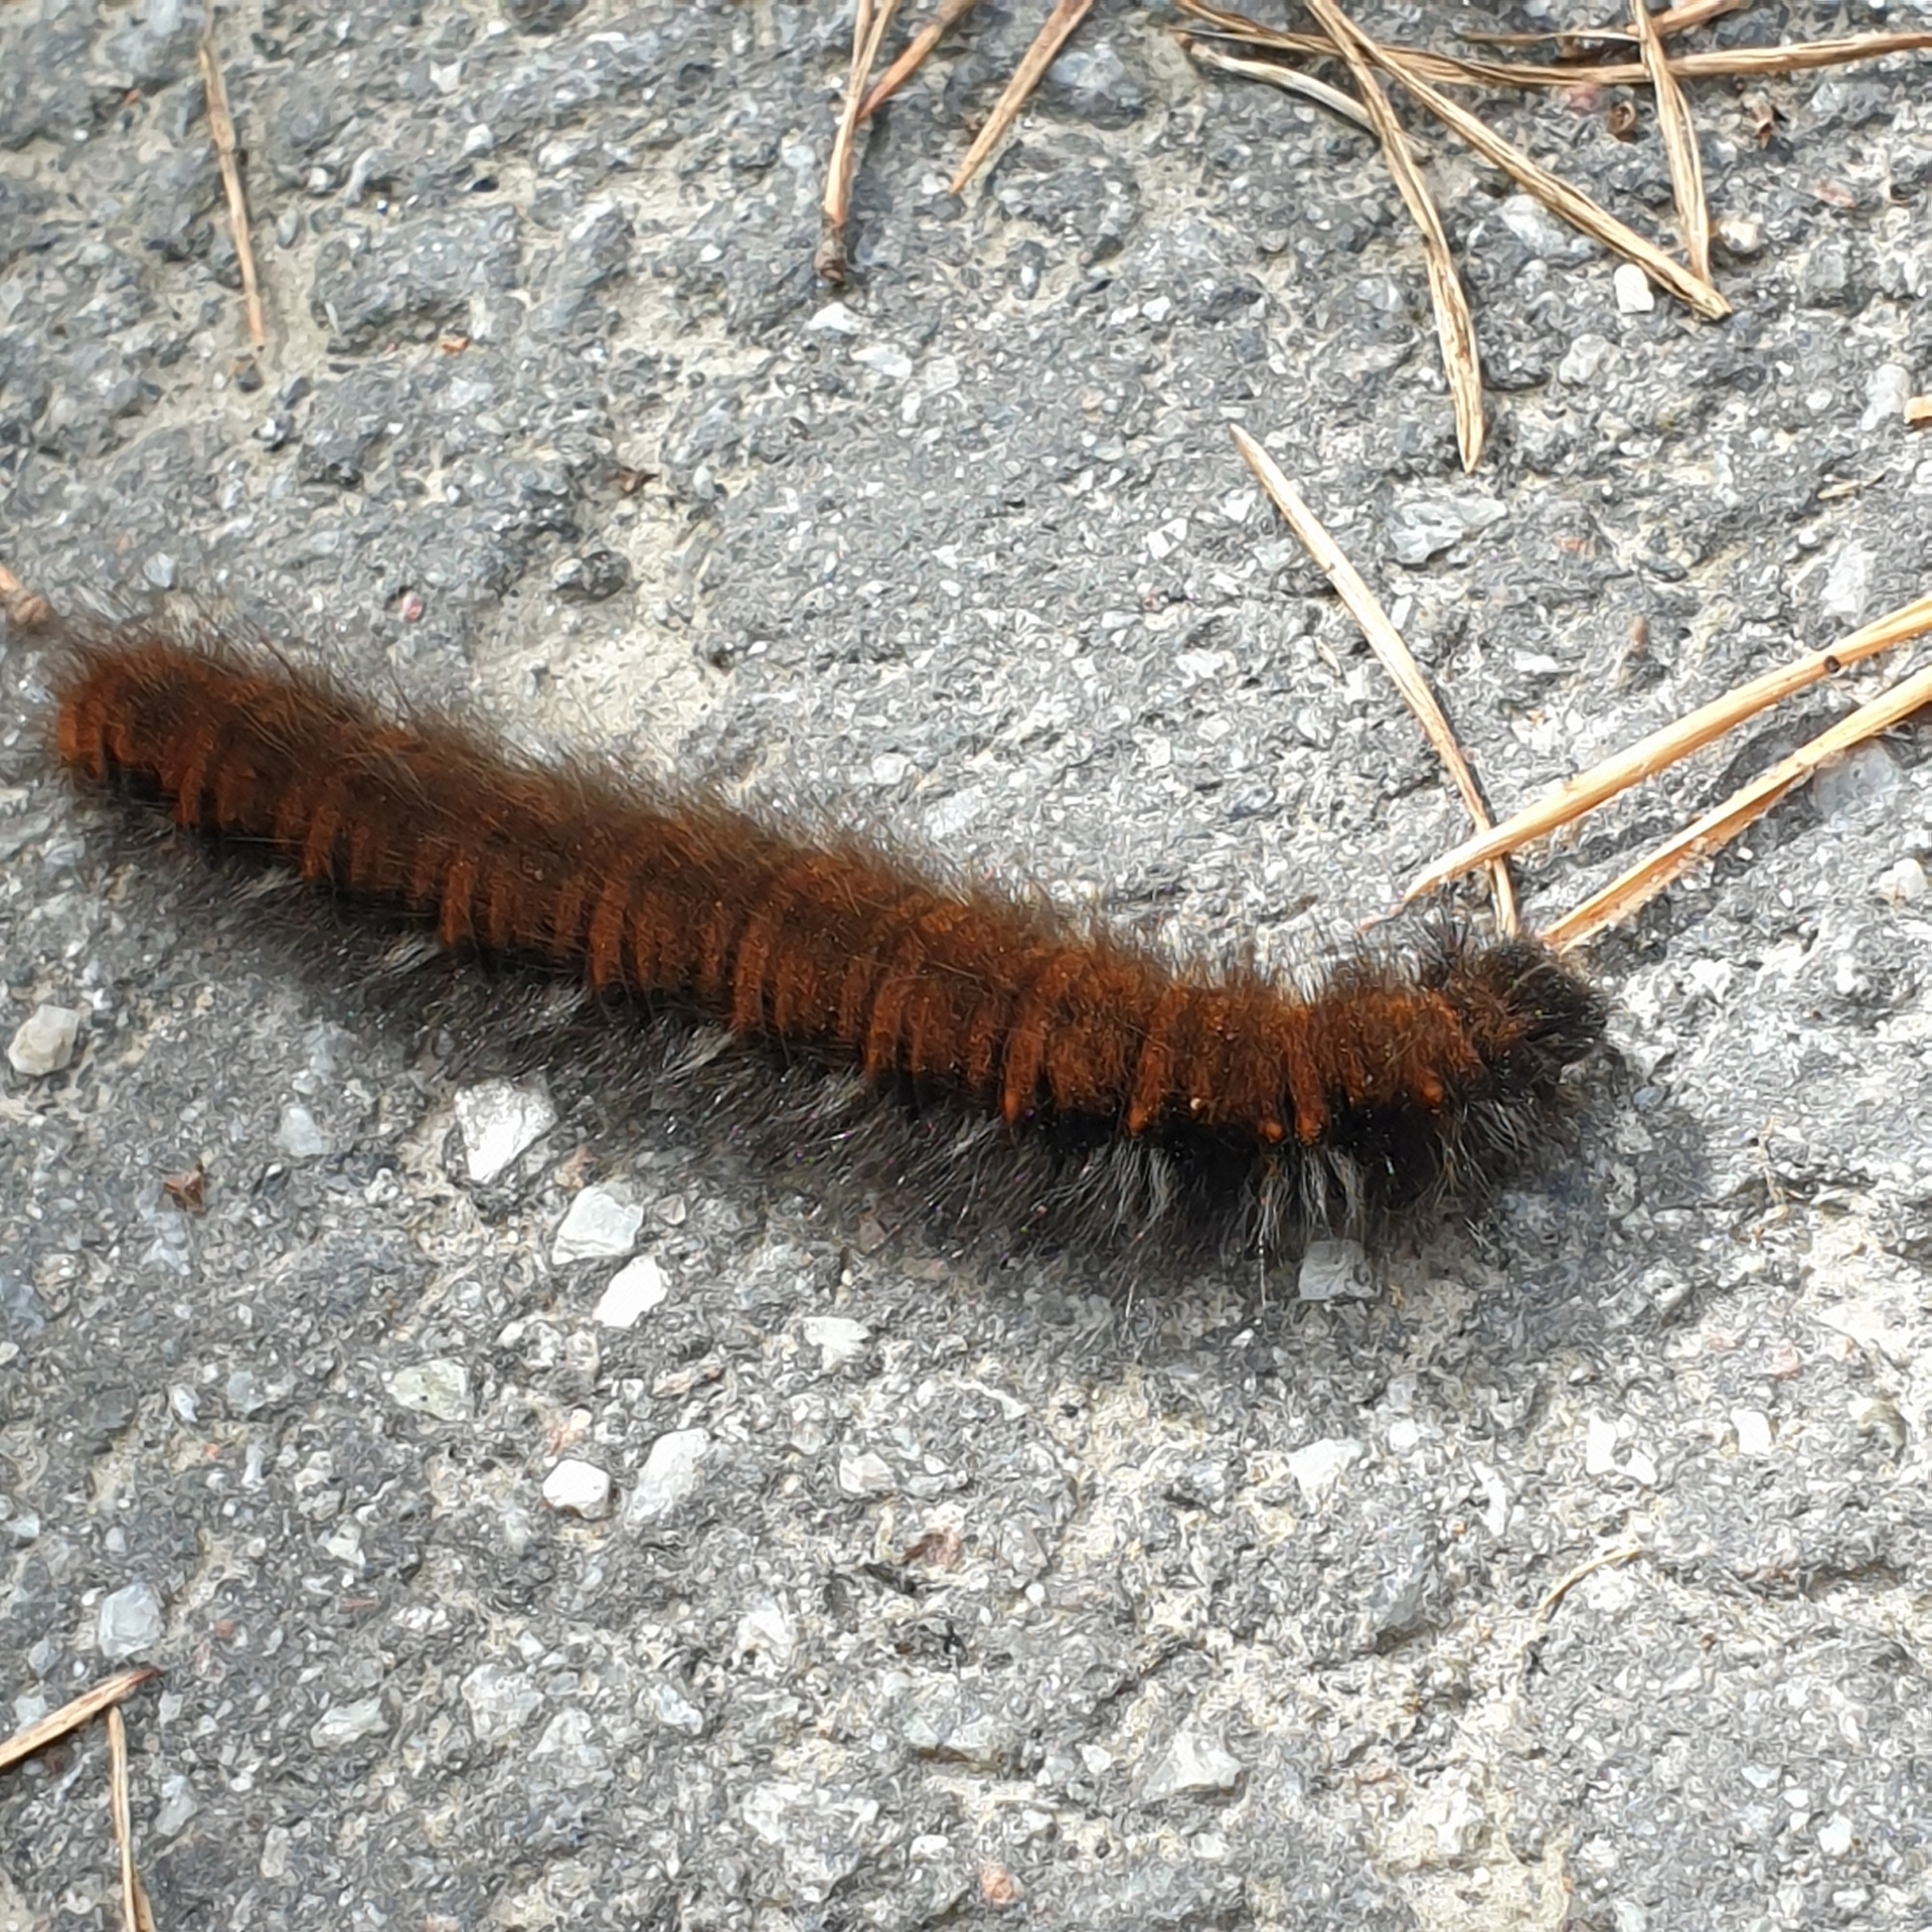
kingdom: Animalia
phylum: Arthropoda
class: Insecta
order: Lepidoptera
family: Lasiocampidae
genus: Macrothylacia
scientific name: Macrothylacia rubi
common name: Fox moth
